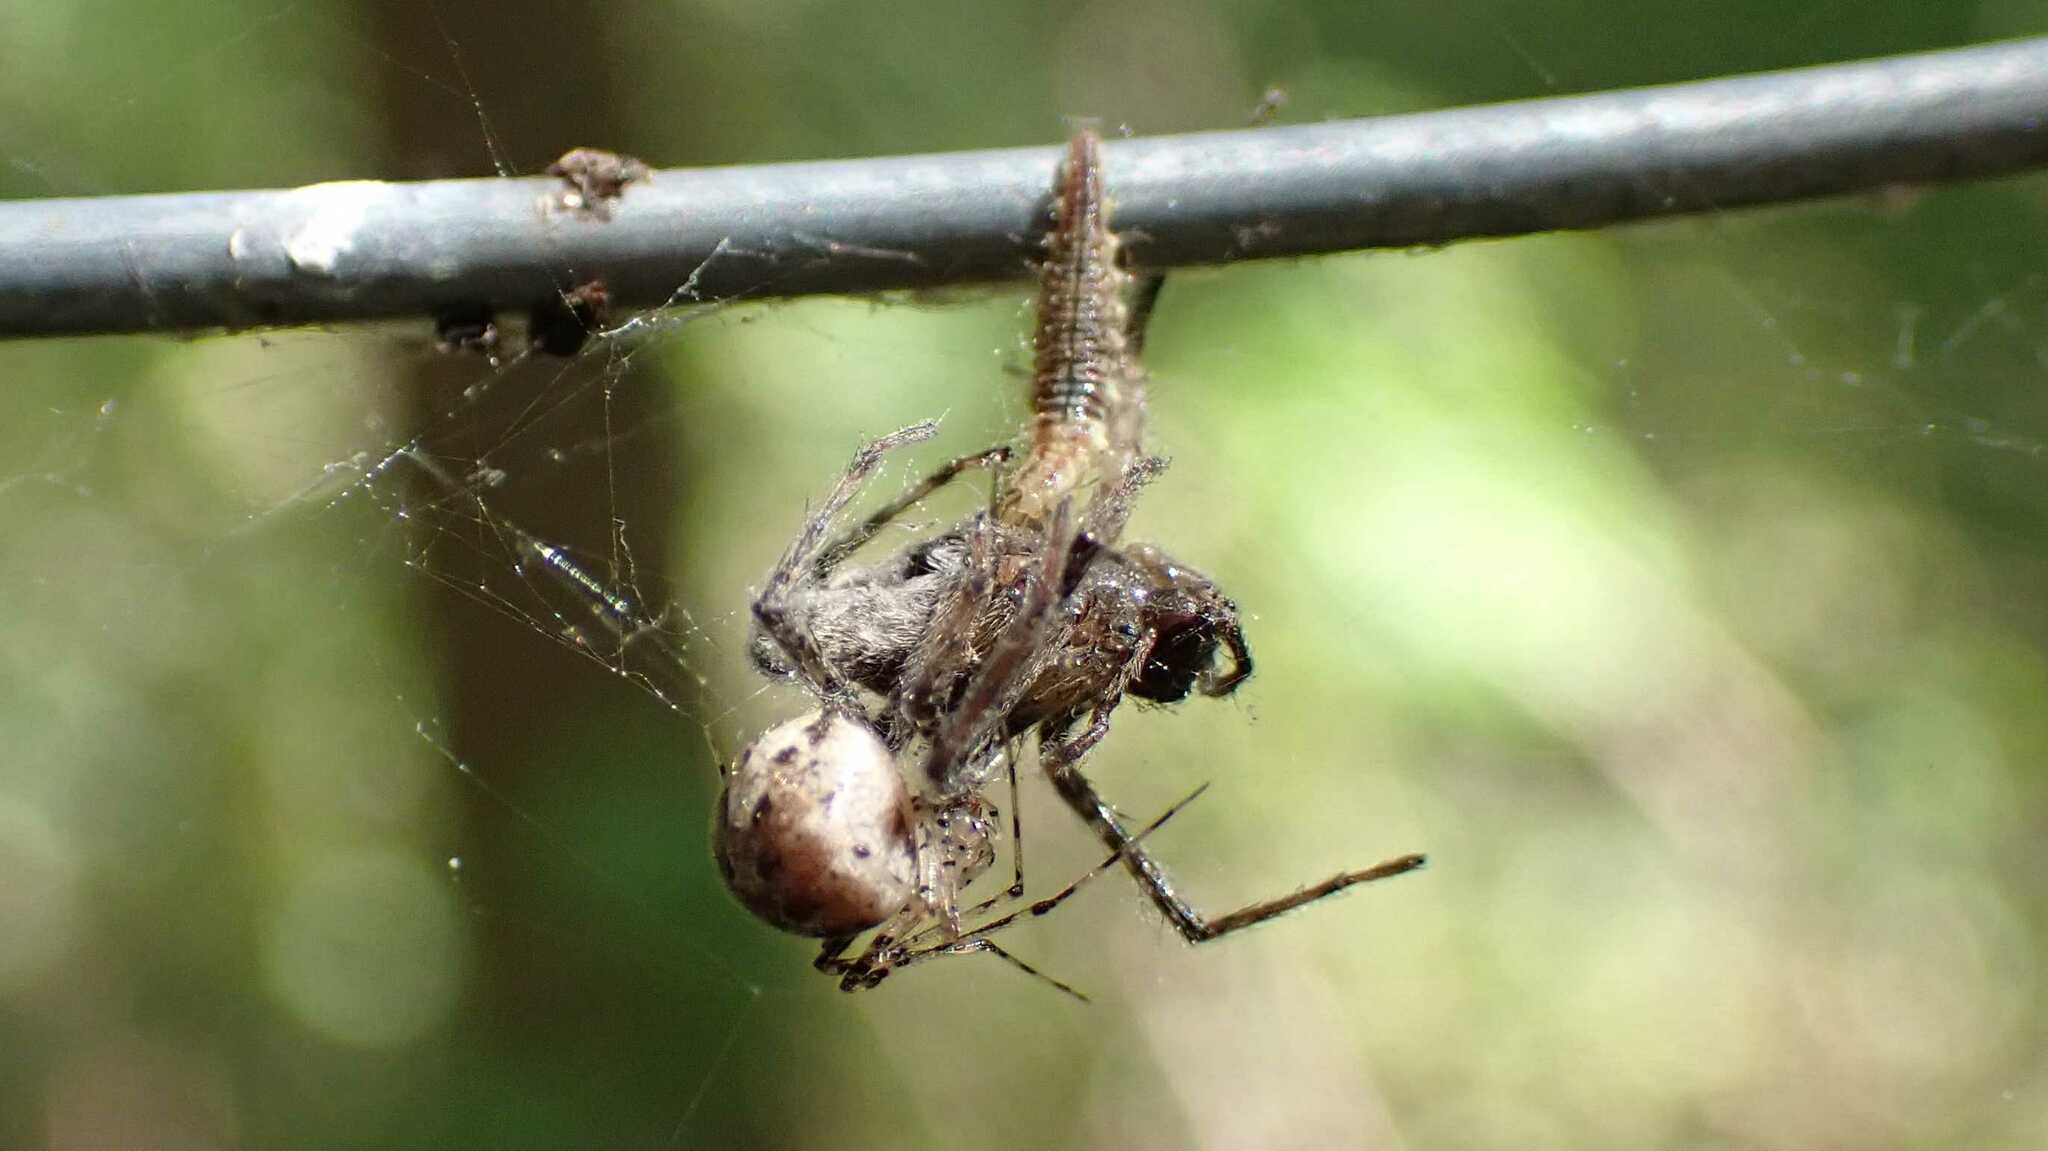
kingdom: Animalia
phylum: Arthropoda
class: Arachnida
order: Araneae
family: Theridiidae
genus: Platnickina
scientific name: Platnickina tincta
